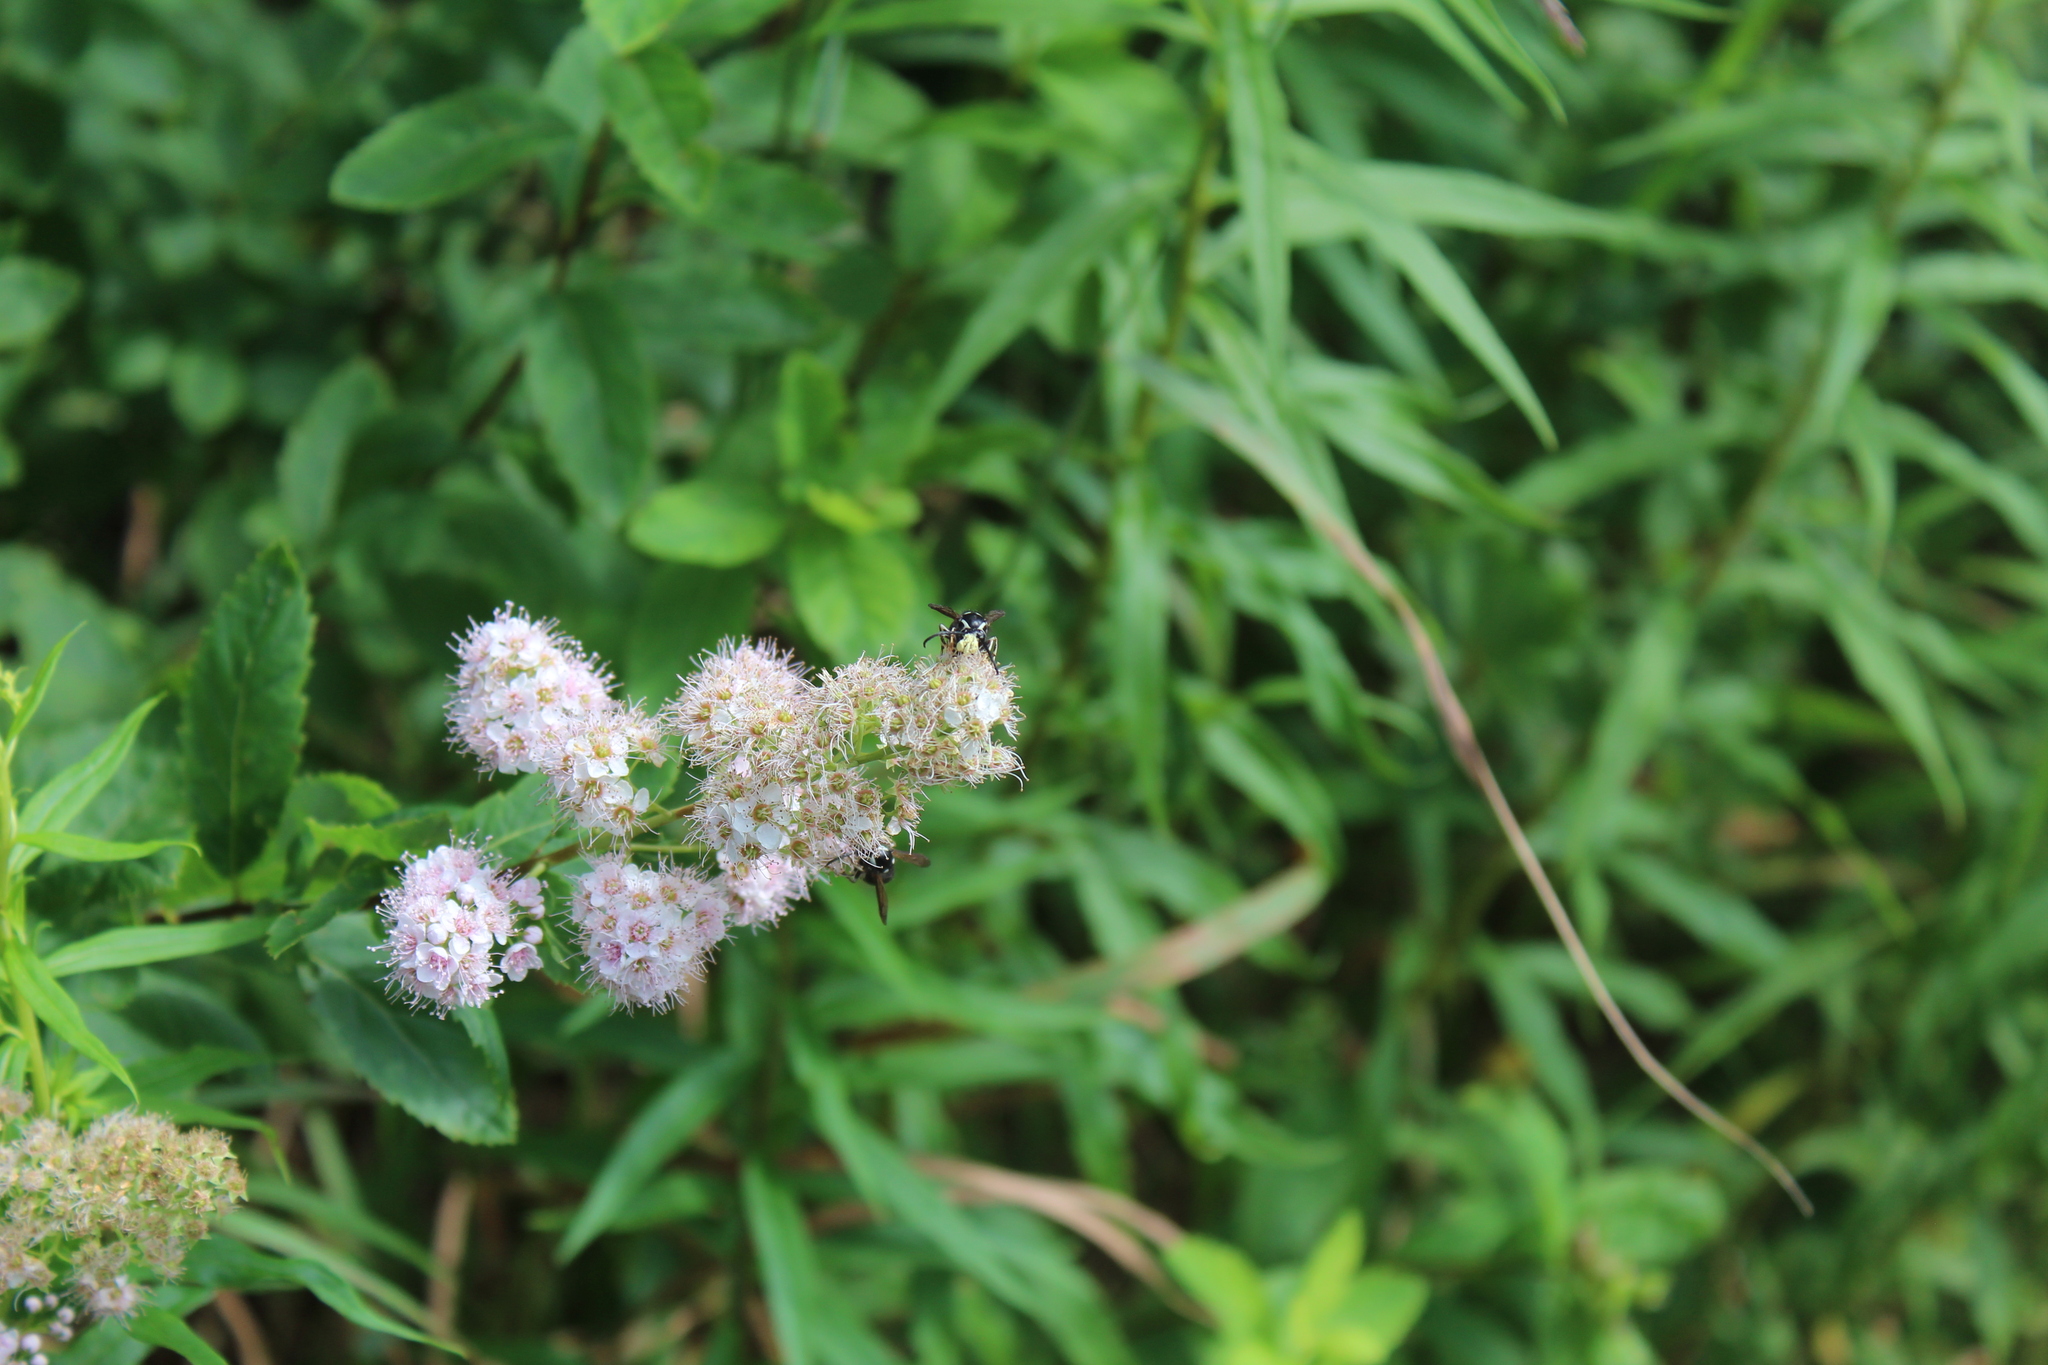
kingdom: Plantae
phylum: Tracheophyta
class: Magnoliopsida
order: Rosales
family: Rosaceae
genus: Spiraea
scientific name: Spiraea alba
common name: Pale bridewort
